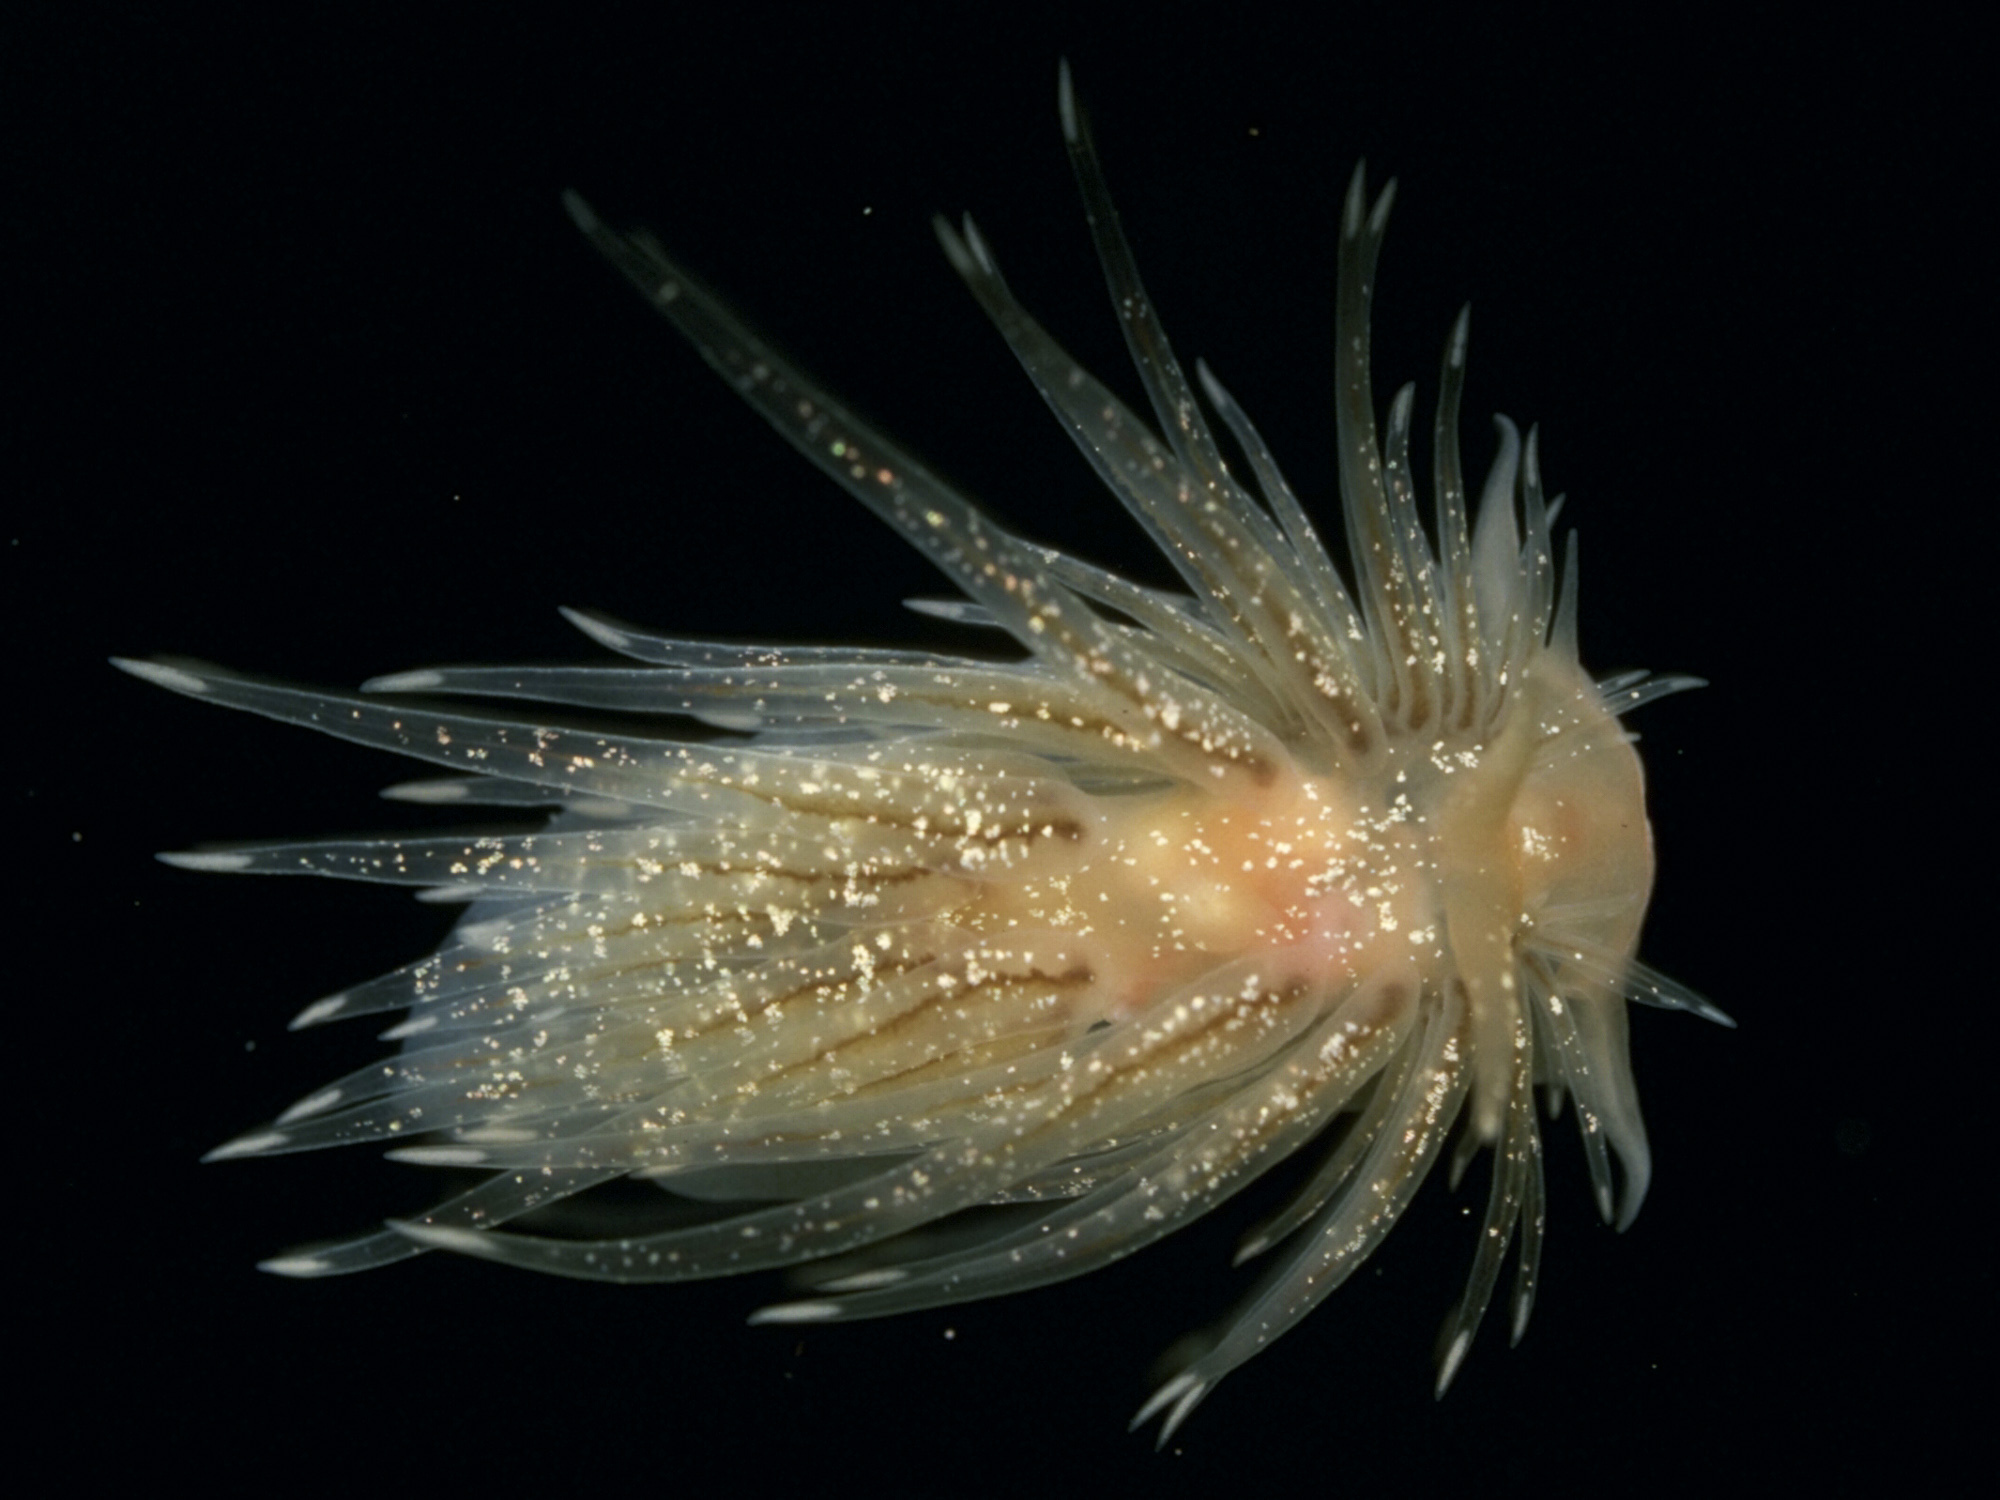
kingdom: Animalia
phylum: Mollusca
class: Gastropoda
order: Nudibranchia
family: Cumanotidae
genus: Cumanotus
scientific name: Cumanotus beaumonti
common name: Polyp aeolis
